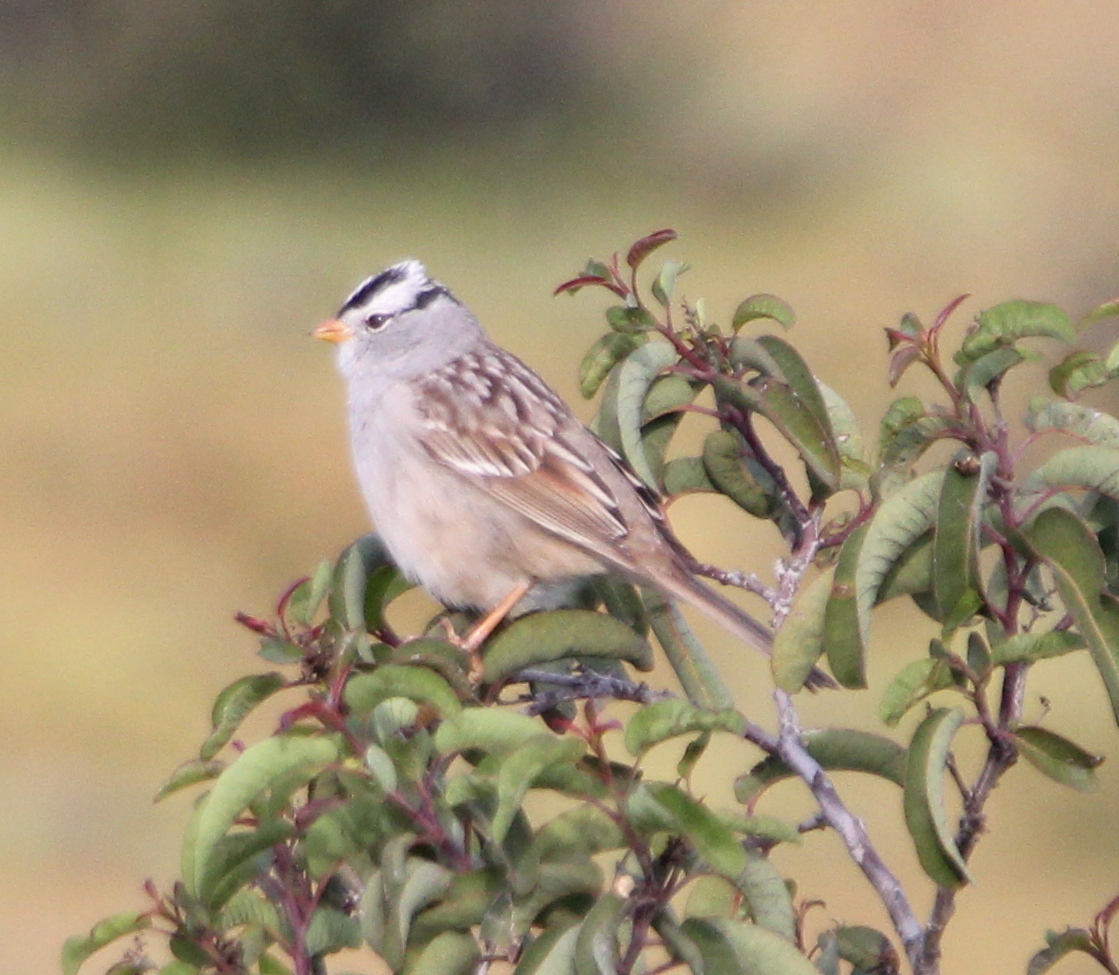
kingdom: Animalia
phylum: Chordata
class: Aves
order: Passeriformes
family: Passerellidae
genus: Zonotrichia
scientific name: Zonotrichia leucophrys
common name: White-crowned sparrow
